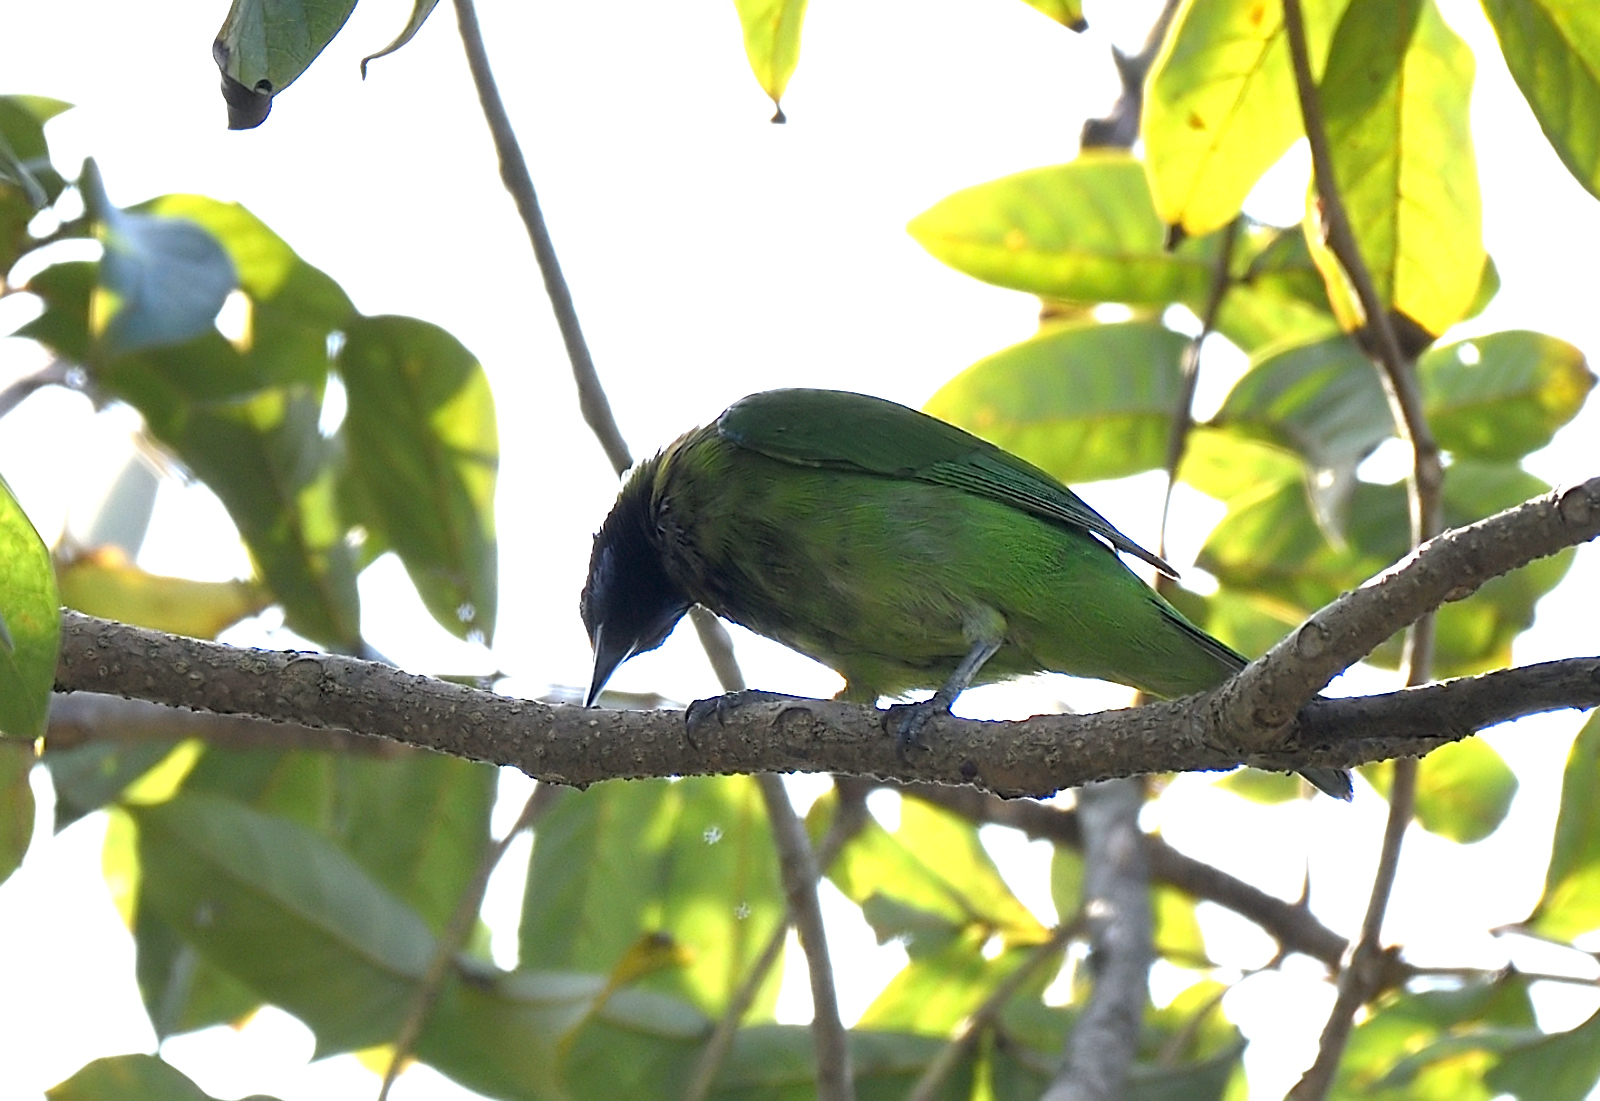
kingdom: Animalia
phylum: Chordata
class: Aves
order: Passeriformes
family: Chloropseidae
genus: Chloropsis
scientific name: Chloropsis aurifrons
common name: Golden-fronted leafbird
